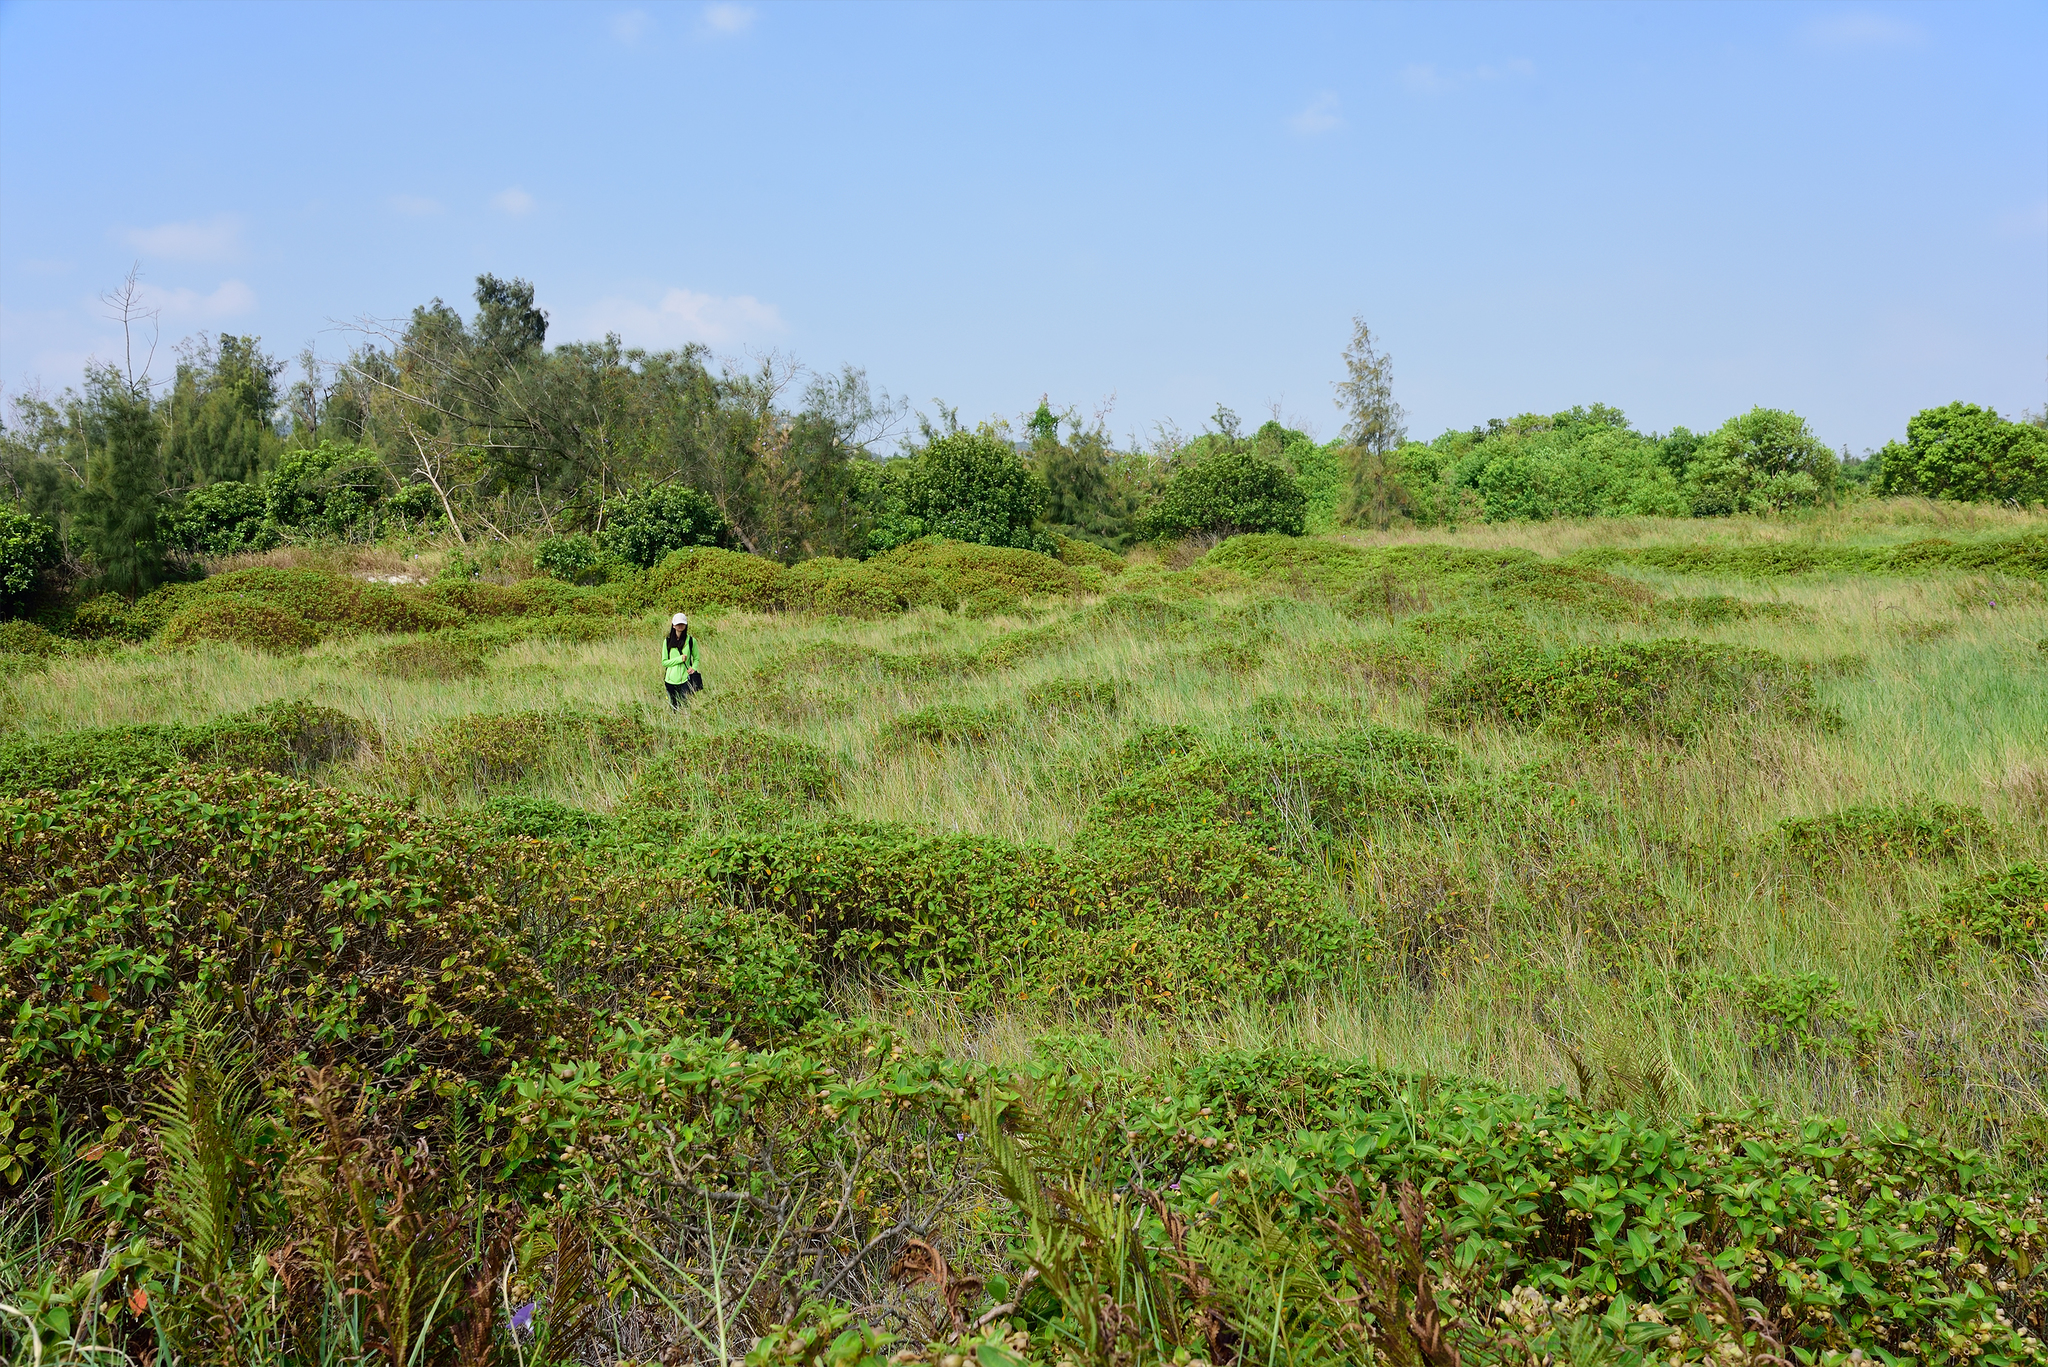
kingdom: Plantae
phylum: Tracheophyta
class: Magnoliopsida
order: Myrtales
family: Melastomataceae
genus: Melastoma
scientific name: Melastoma malabathricum
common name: Indian-rhododendron
